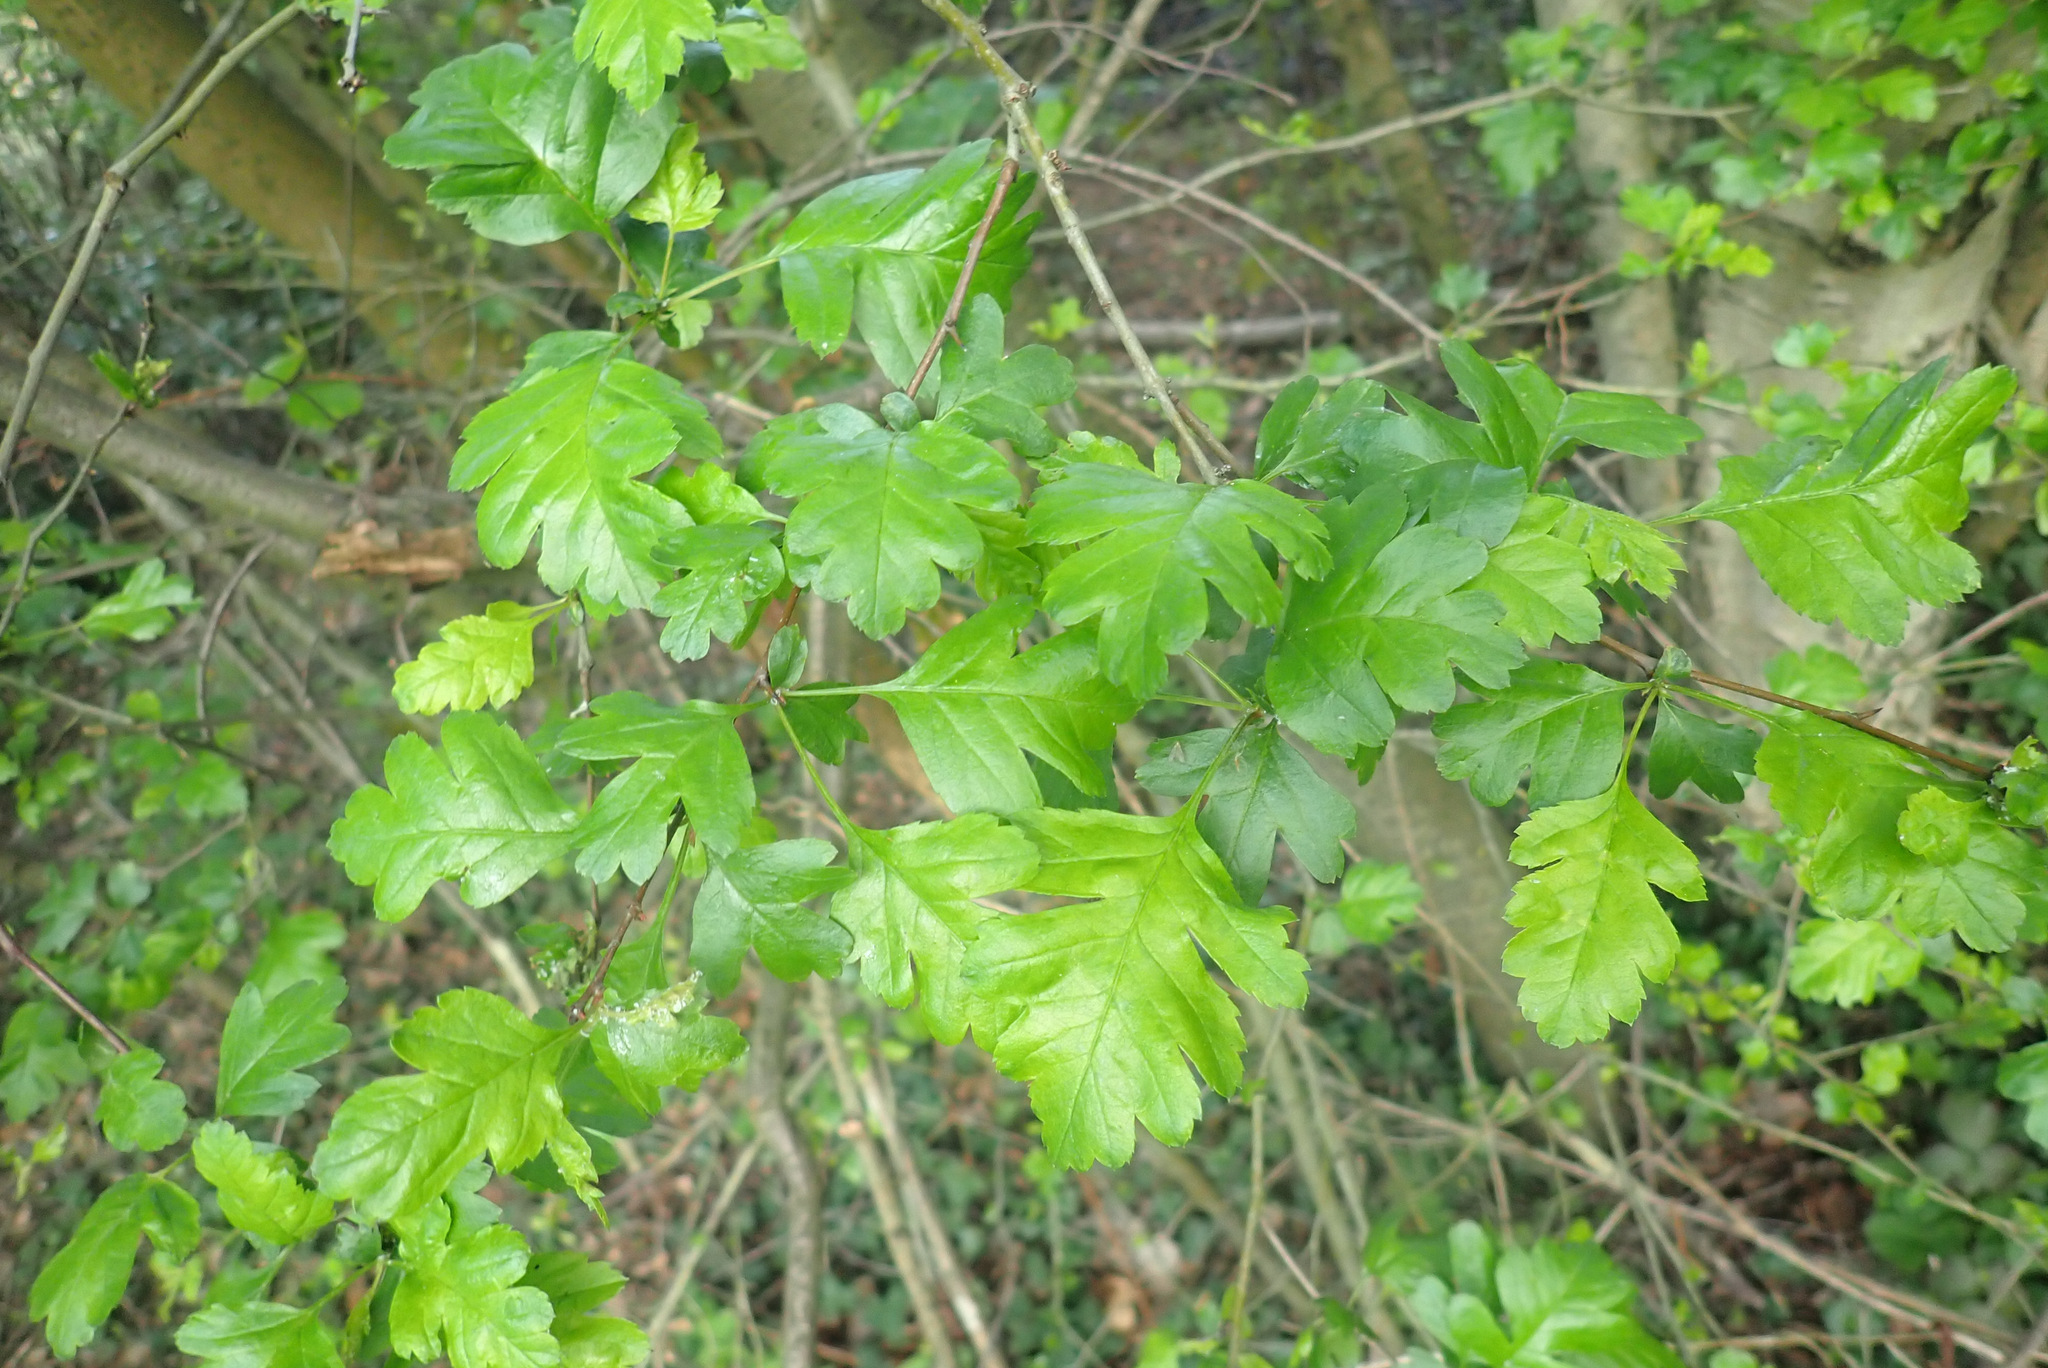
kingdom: Plantae
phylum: Tracheophyta
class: Magnoliopsida
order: Rosales
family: Rosaceae
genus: Crataegus
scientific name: Crataegus monogyna
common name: Hawthorn
